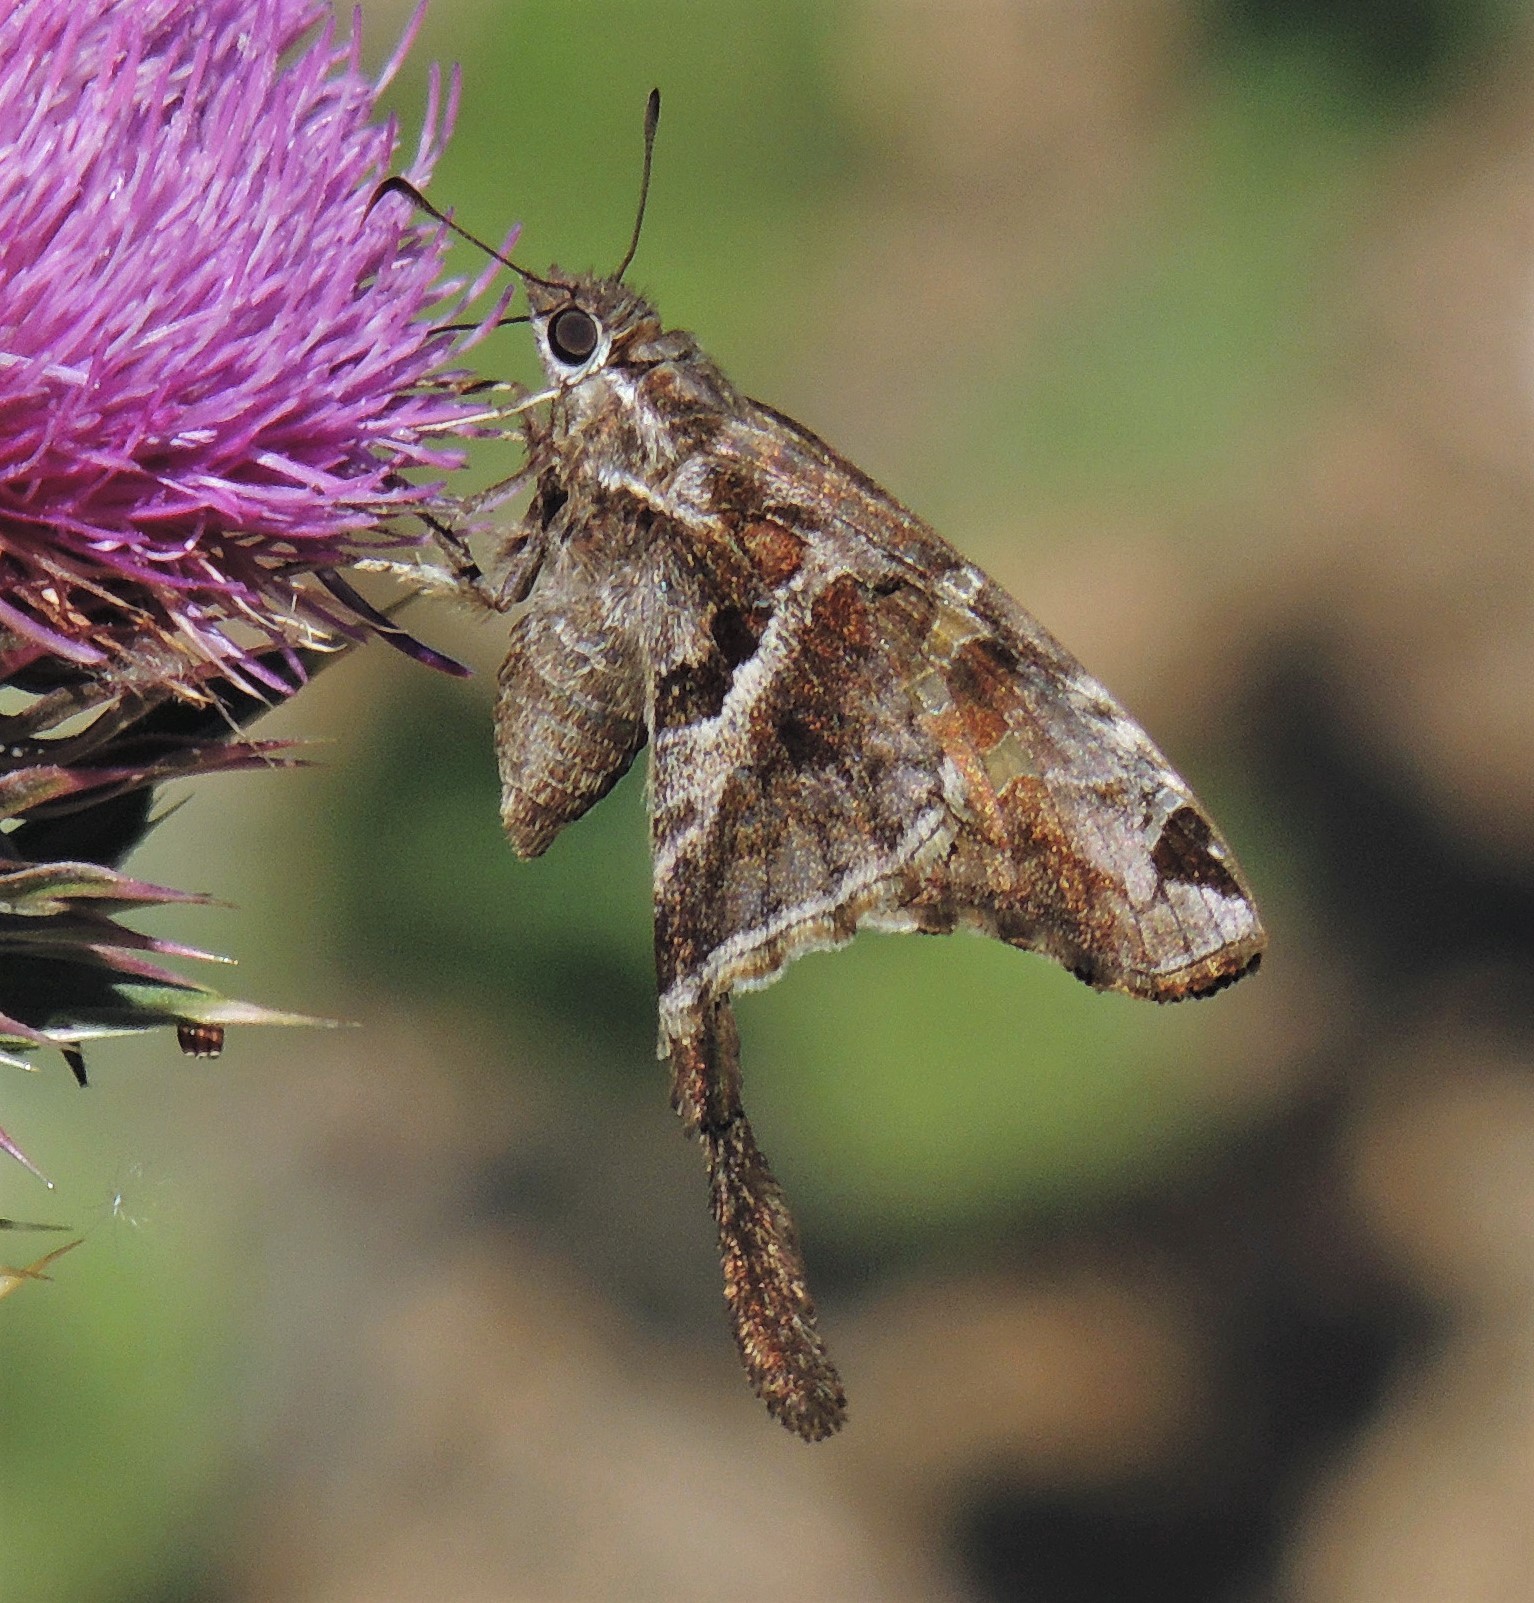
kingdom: Animalia
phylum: Arthropoda
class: Insecta
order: Lepidoptera
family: Hesperiidae
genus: Chioides
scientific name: Chioides catillus
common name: Silverbanded skipper
